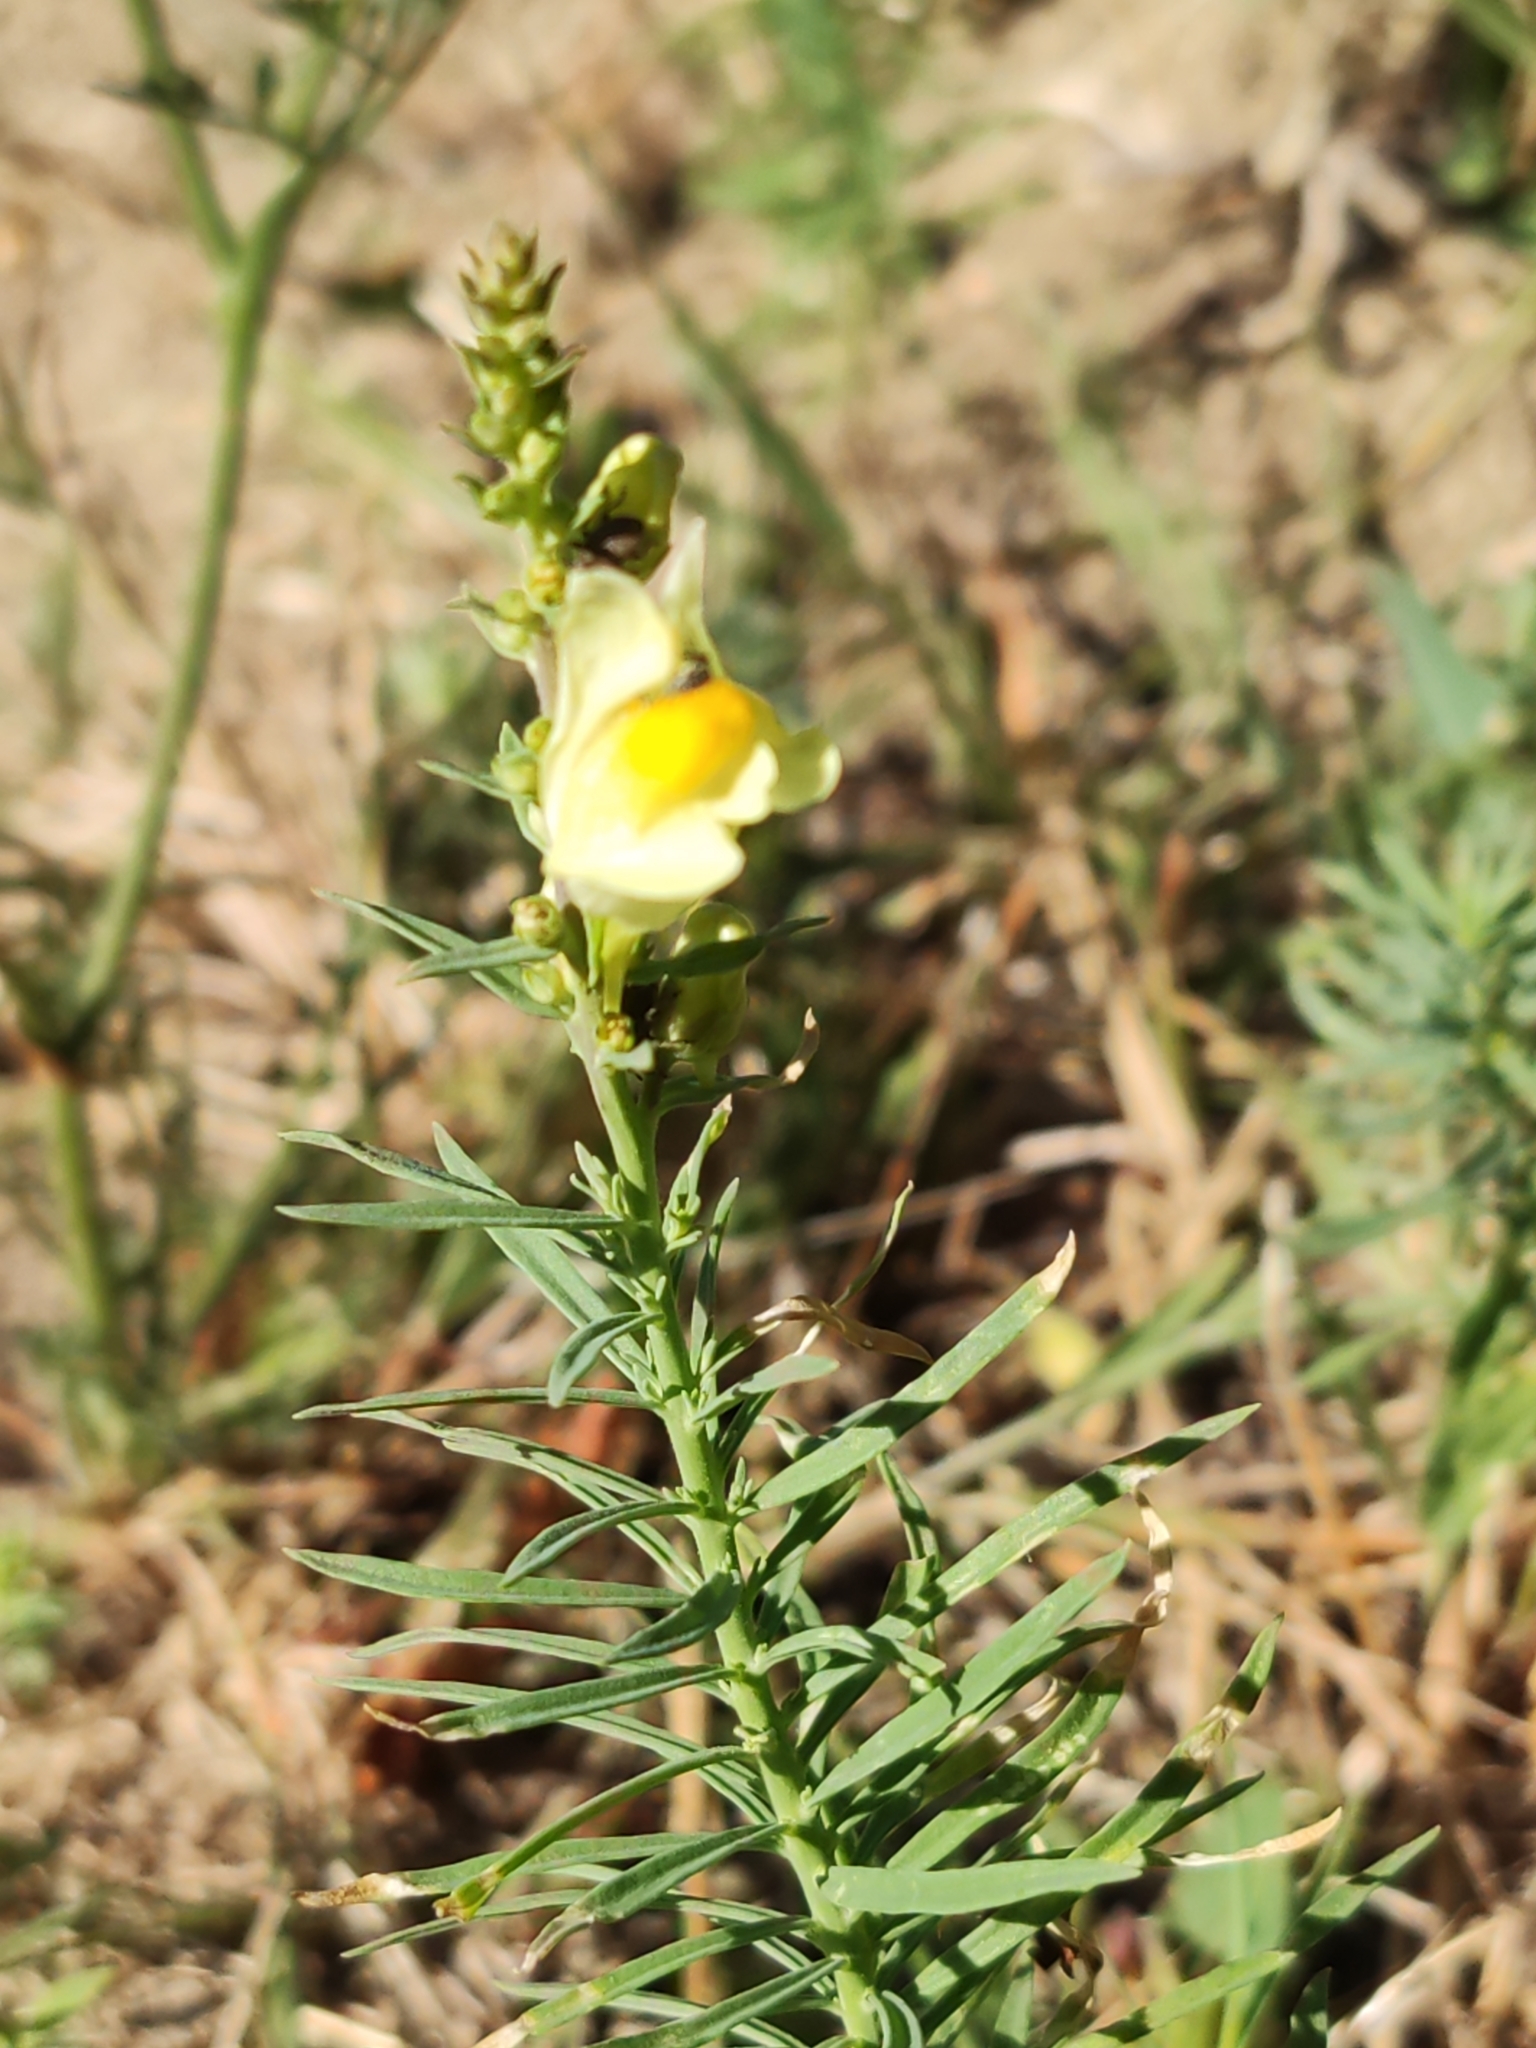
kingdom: Plantae
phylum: Tracheophyta
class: Magnoliopsida
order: Lamiales
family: Plantaginaceae
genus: Linaria
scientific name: Linaria vulgaris
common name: Butter and eggs
